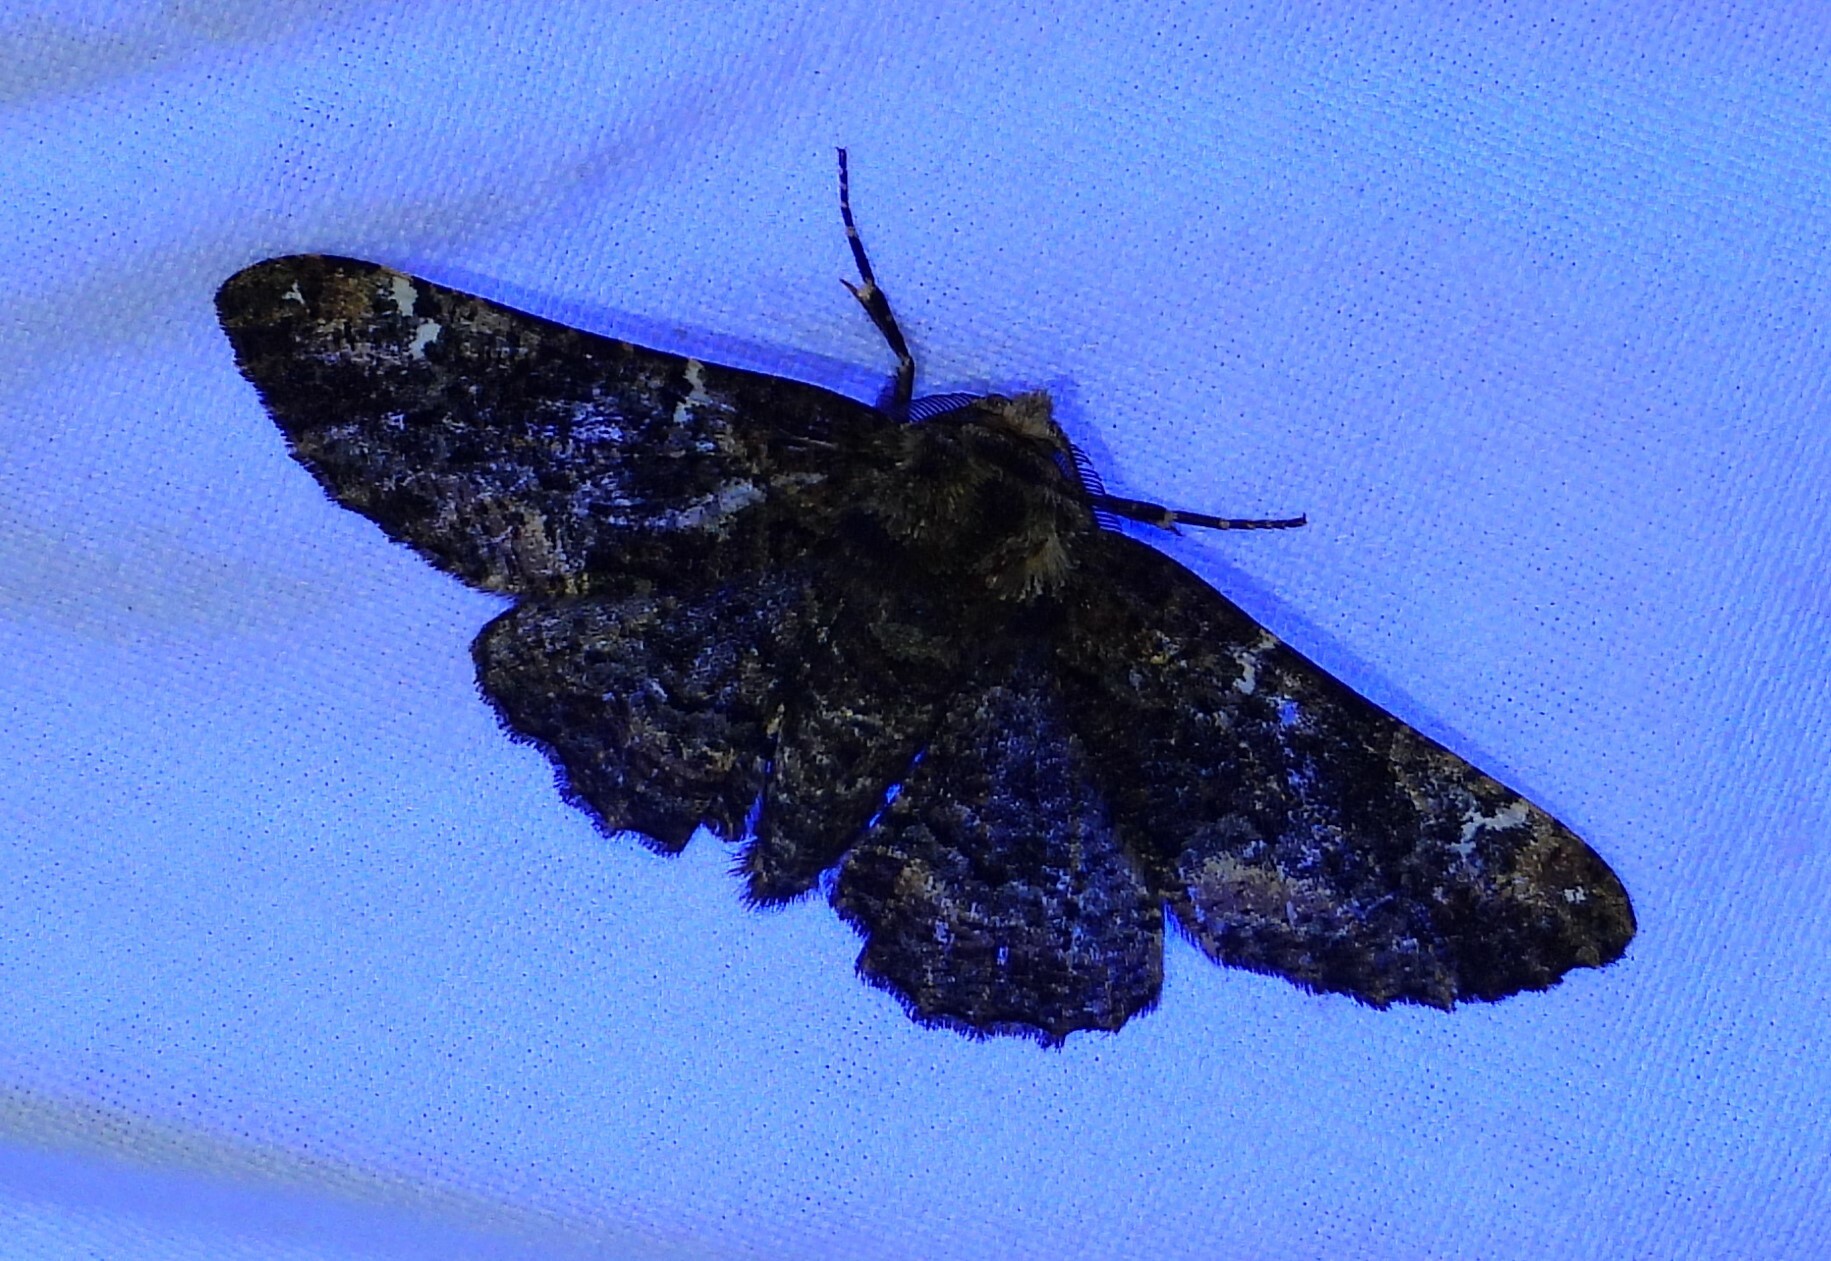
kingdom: Animalia
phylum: Arthropoda
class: Insecta
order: Lepidoptera
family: Geometridae
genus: Phaeoura
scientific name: Phaeoura quernaria
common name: Oak beauty
